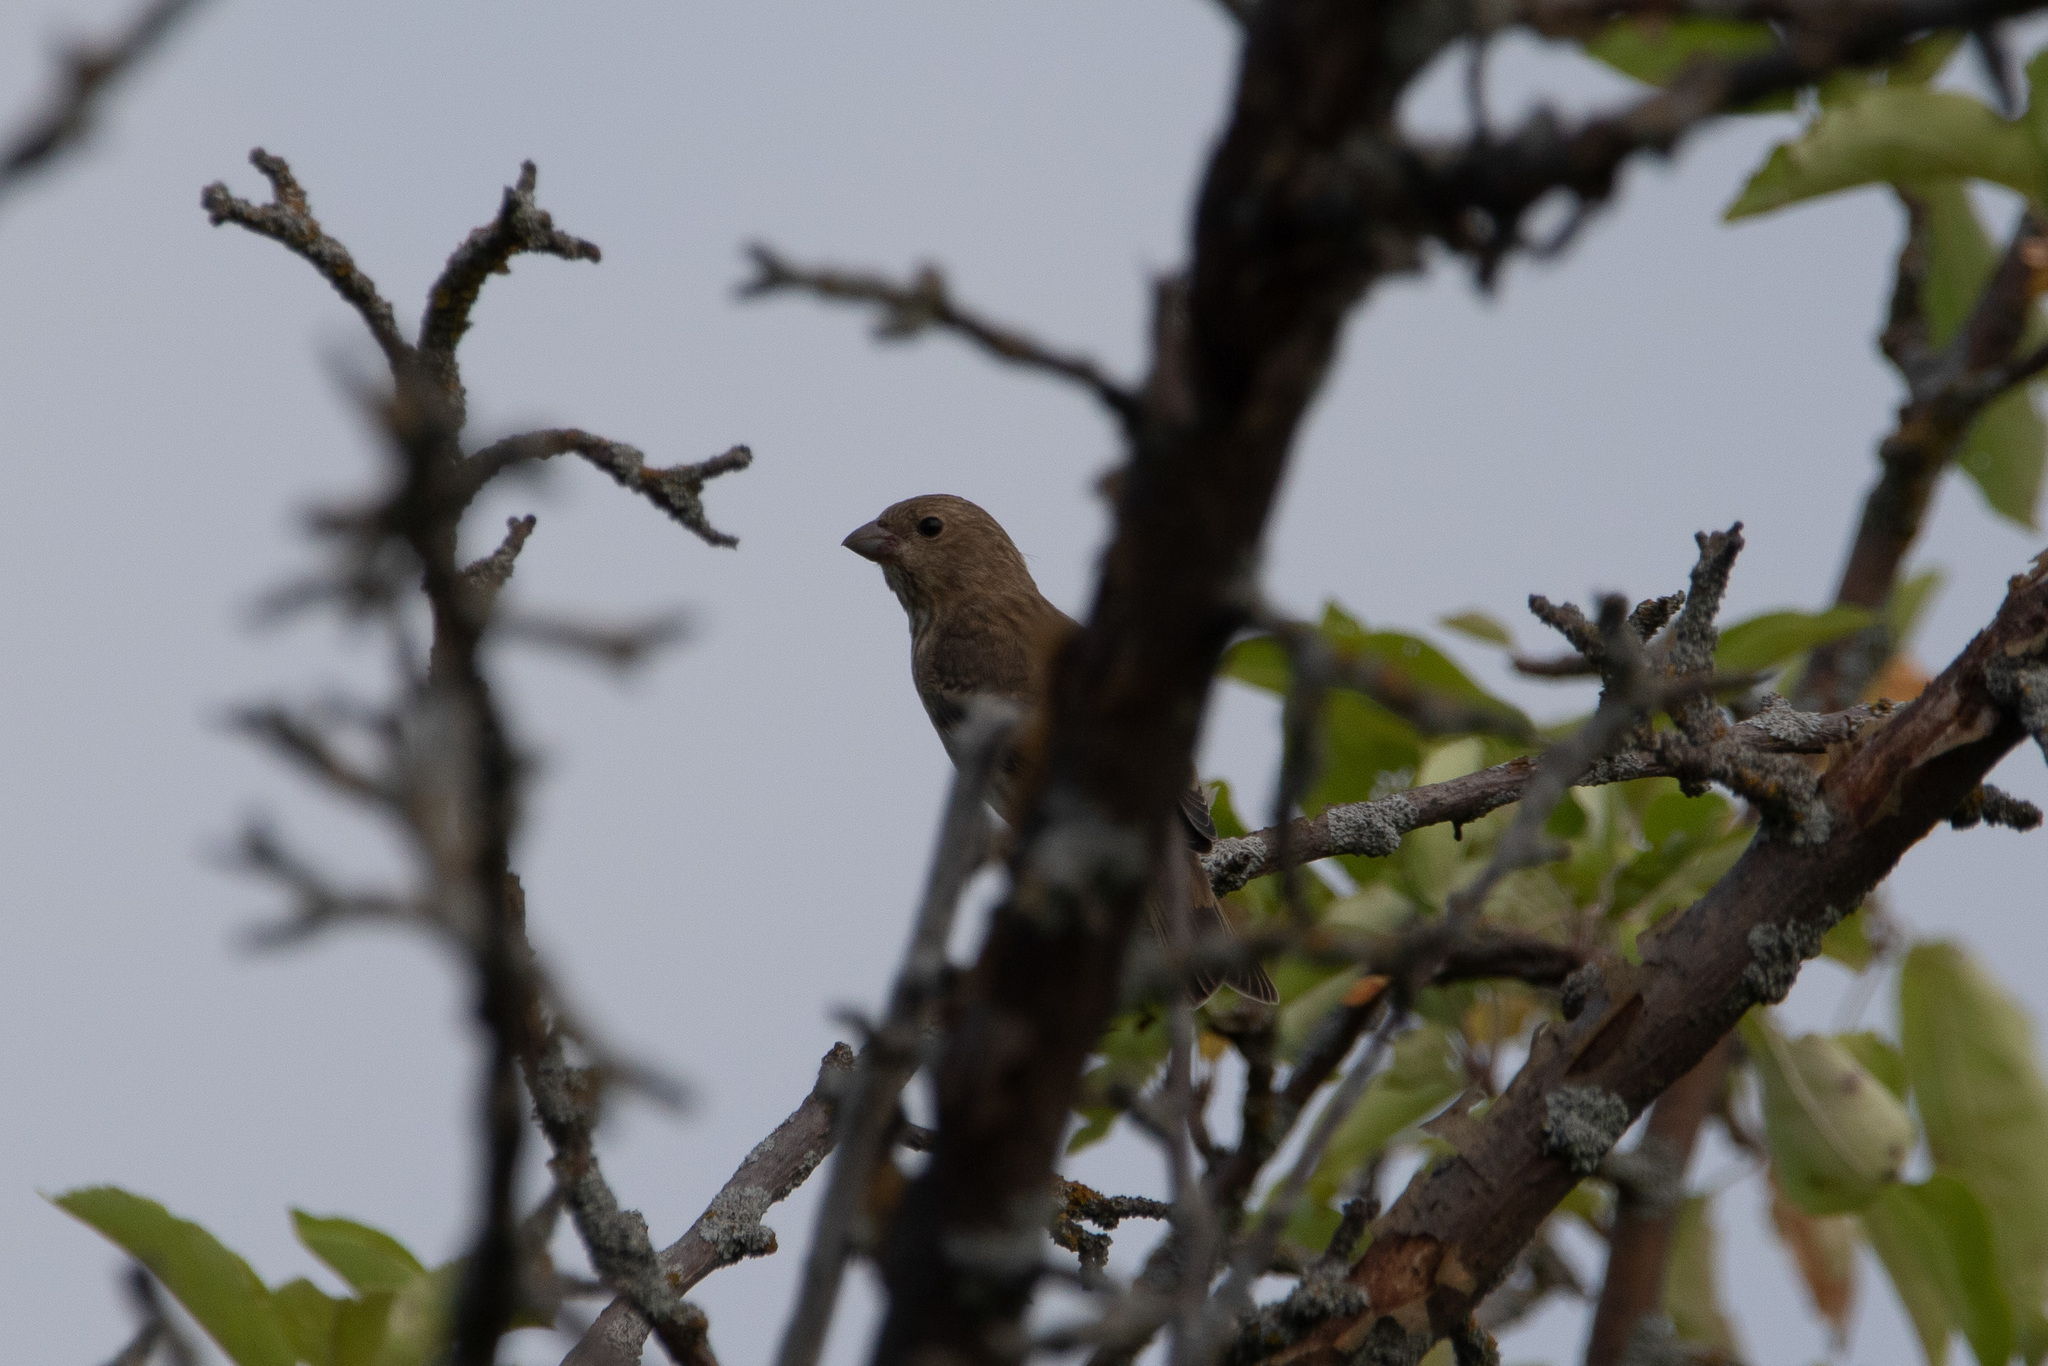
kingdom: Animalia
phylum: Chordata
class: Aves
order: Passeriformes
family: Fringillidae
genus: Carpodacus
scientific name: Carpodacus erythrinus
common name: Common rosefinch
